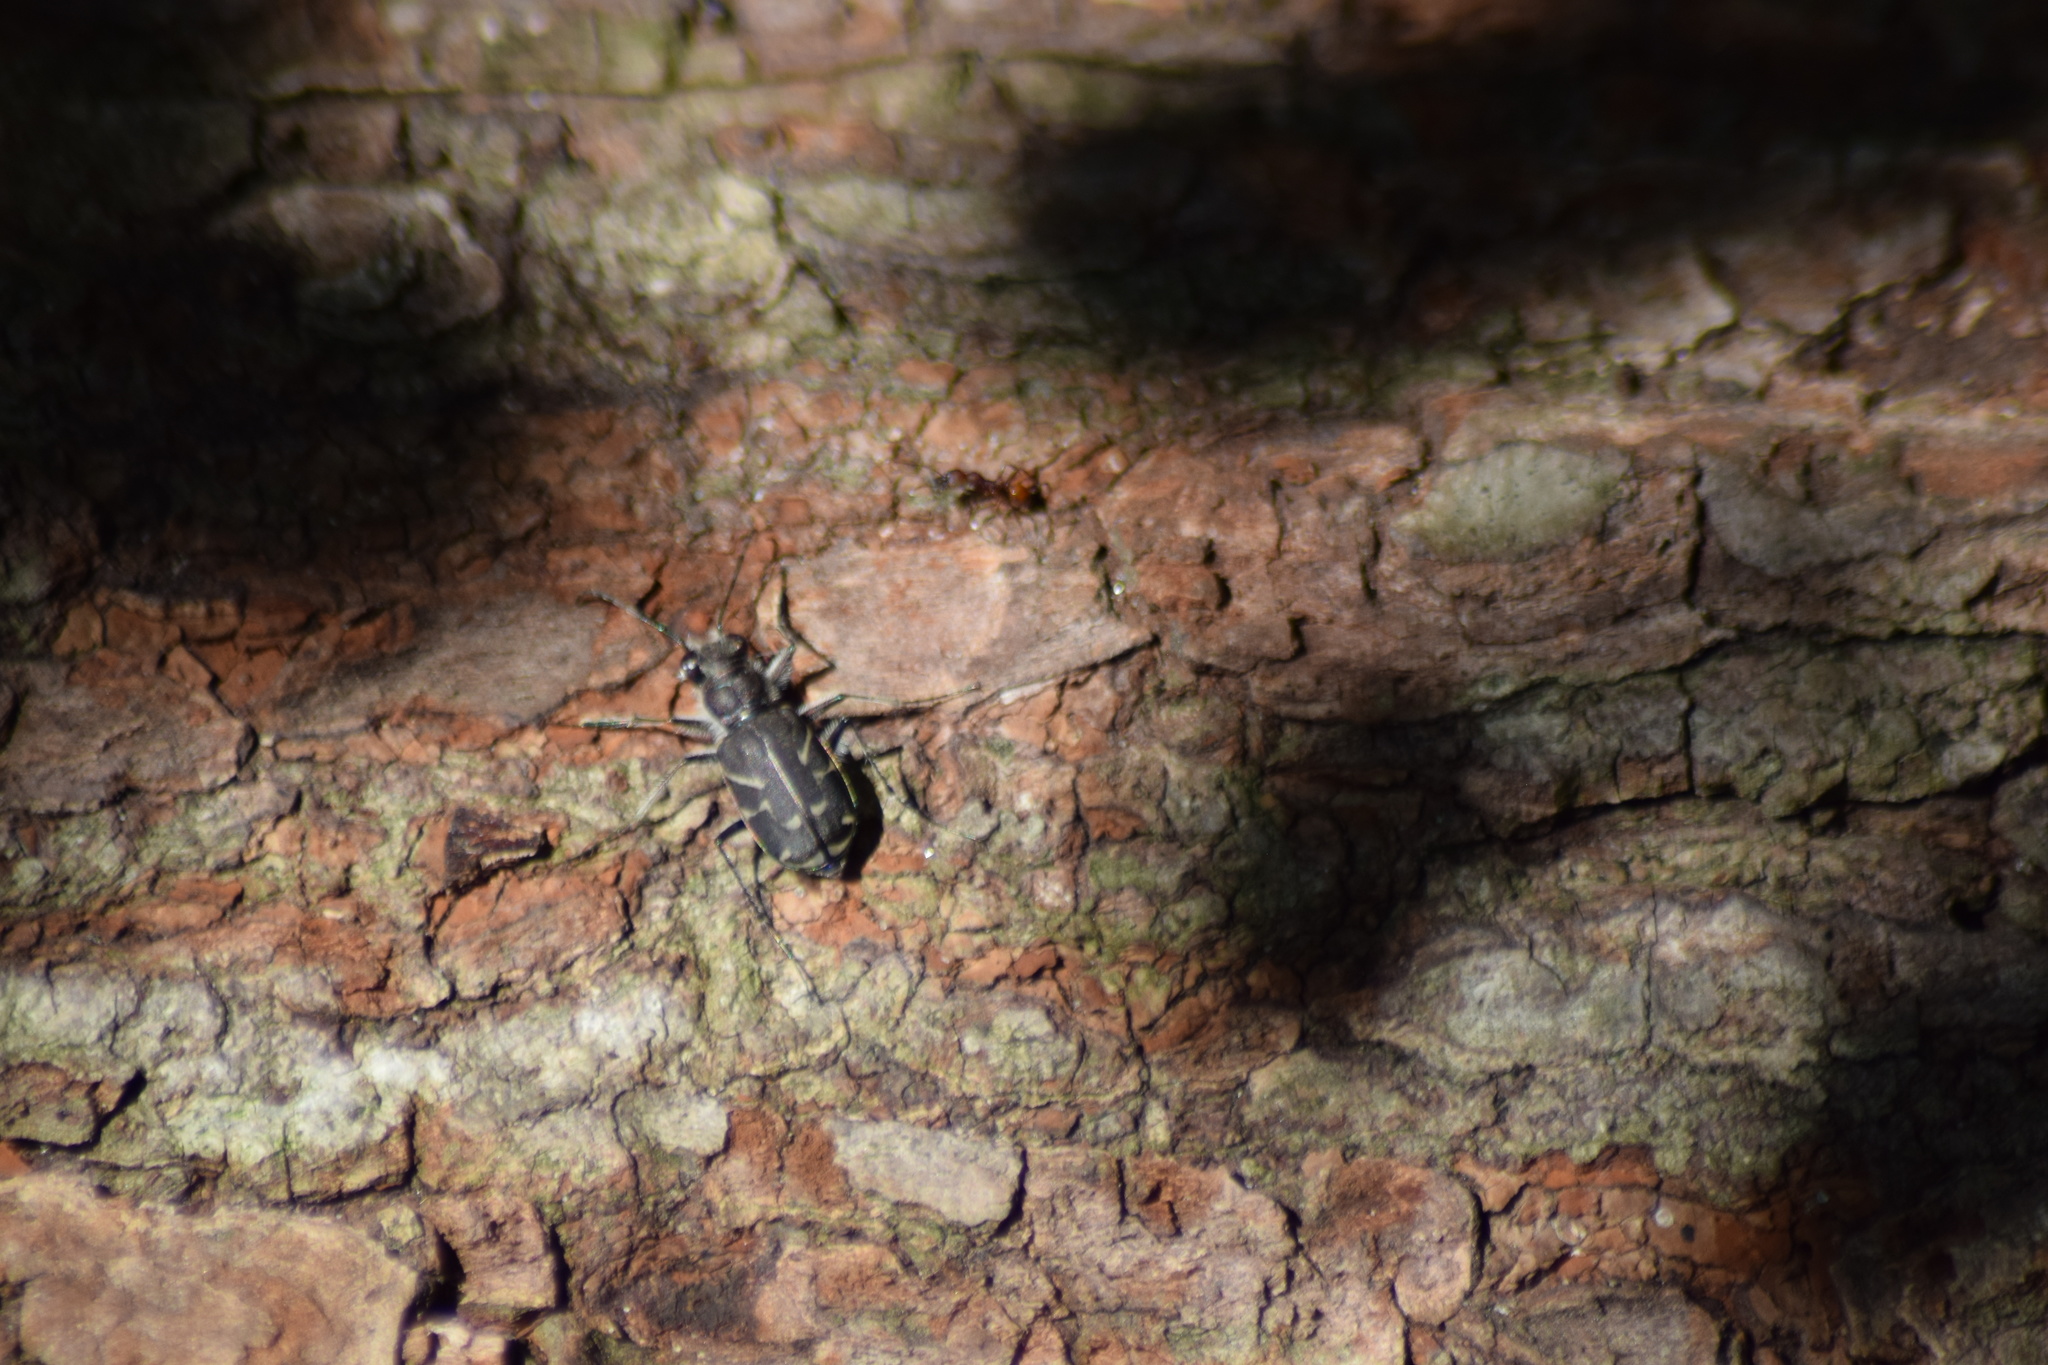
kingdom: Animalia
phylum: Arthropoda
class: Insecta
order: Coleoptera
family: Carabidae
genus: Cicindela
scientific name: Cicindela tranquebarica
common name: Oblique-lined tiger beetle
